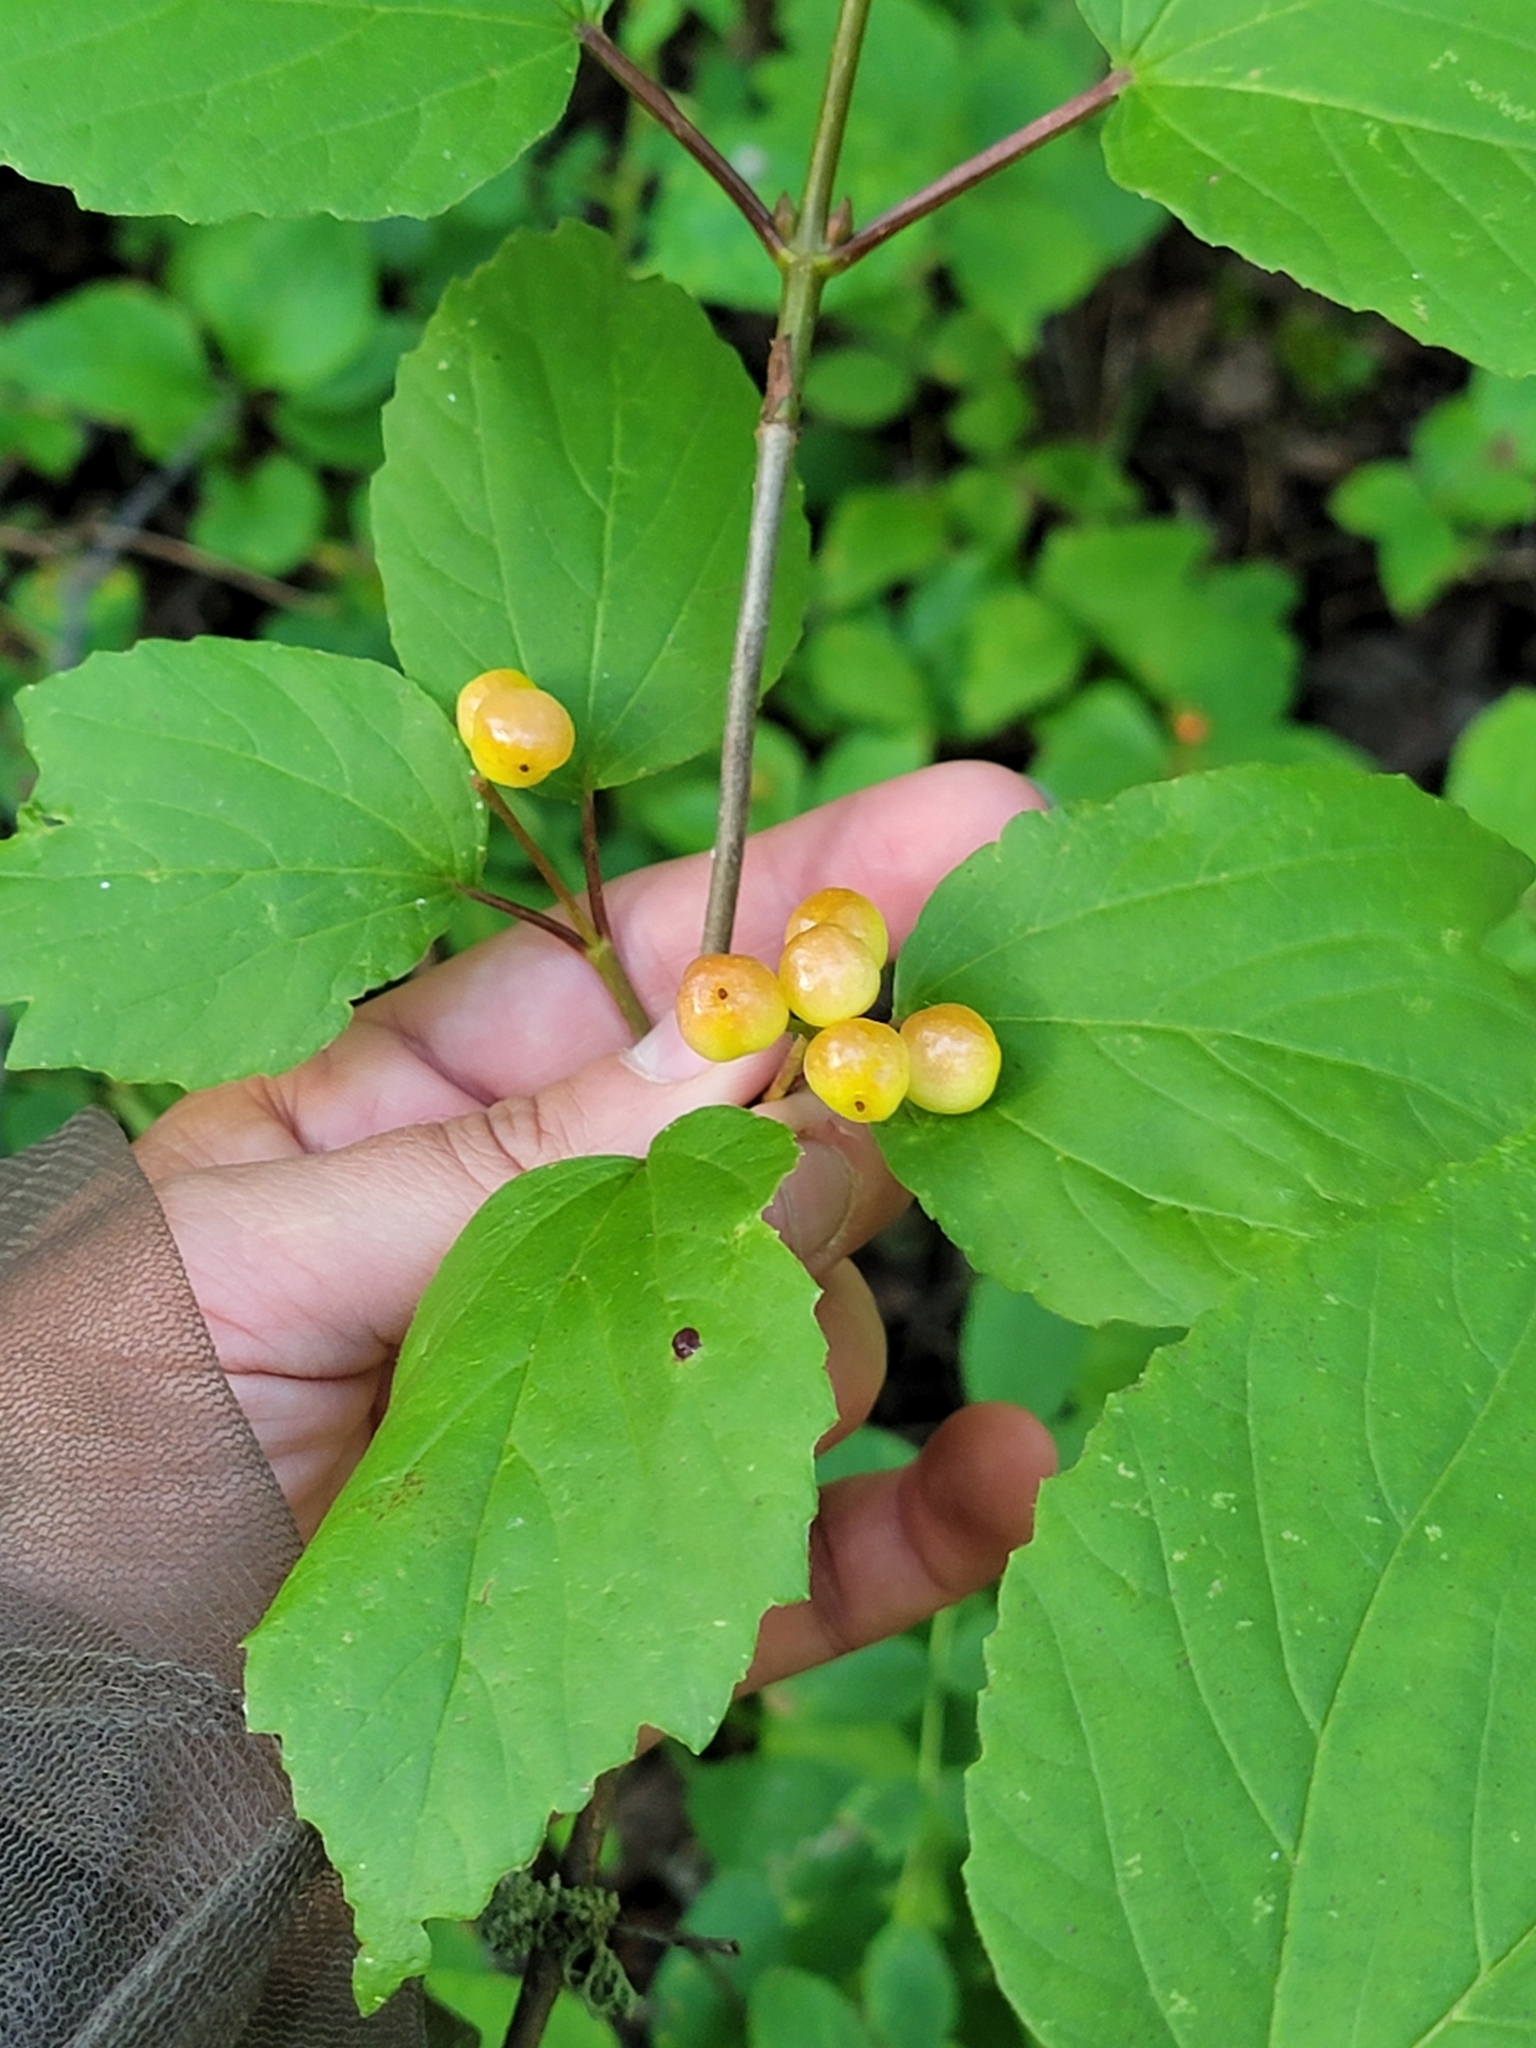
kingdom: Plantae
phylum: Tracheophyta
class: Magnoliopsida
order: Dipsacales
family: Viburnaceae
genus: Viburnum
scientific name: Viburnum edule
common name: Mooseberry
